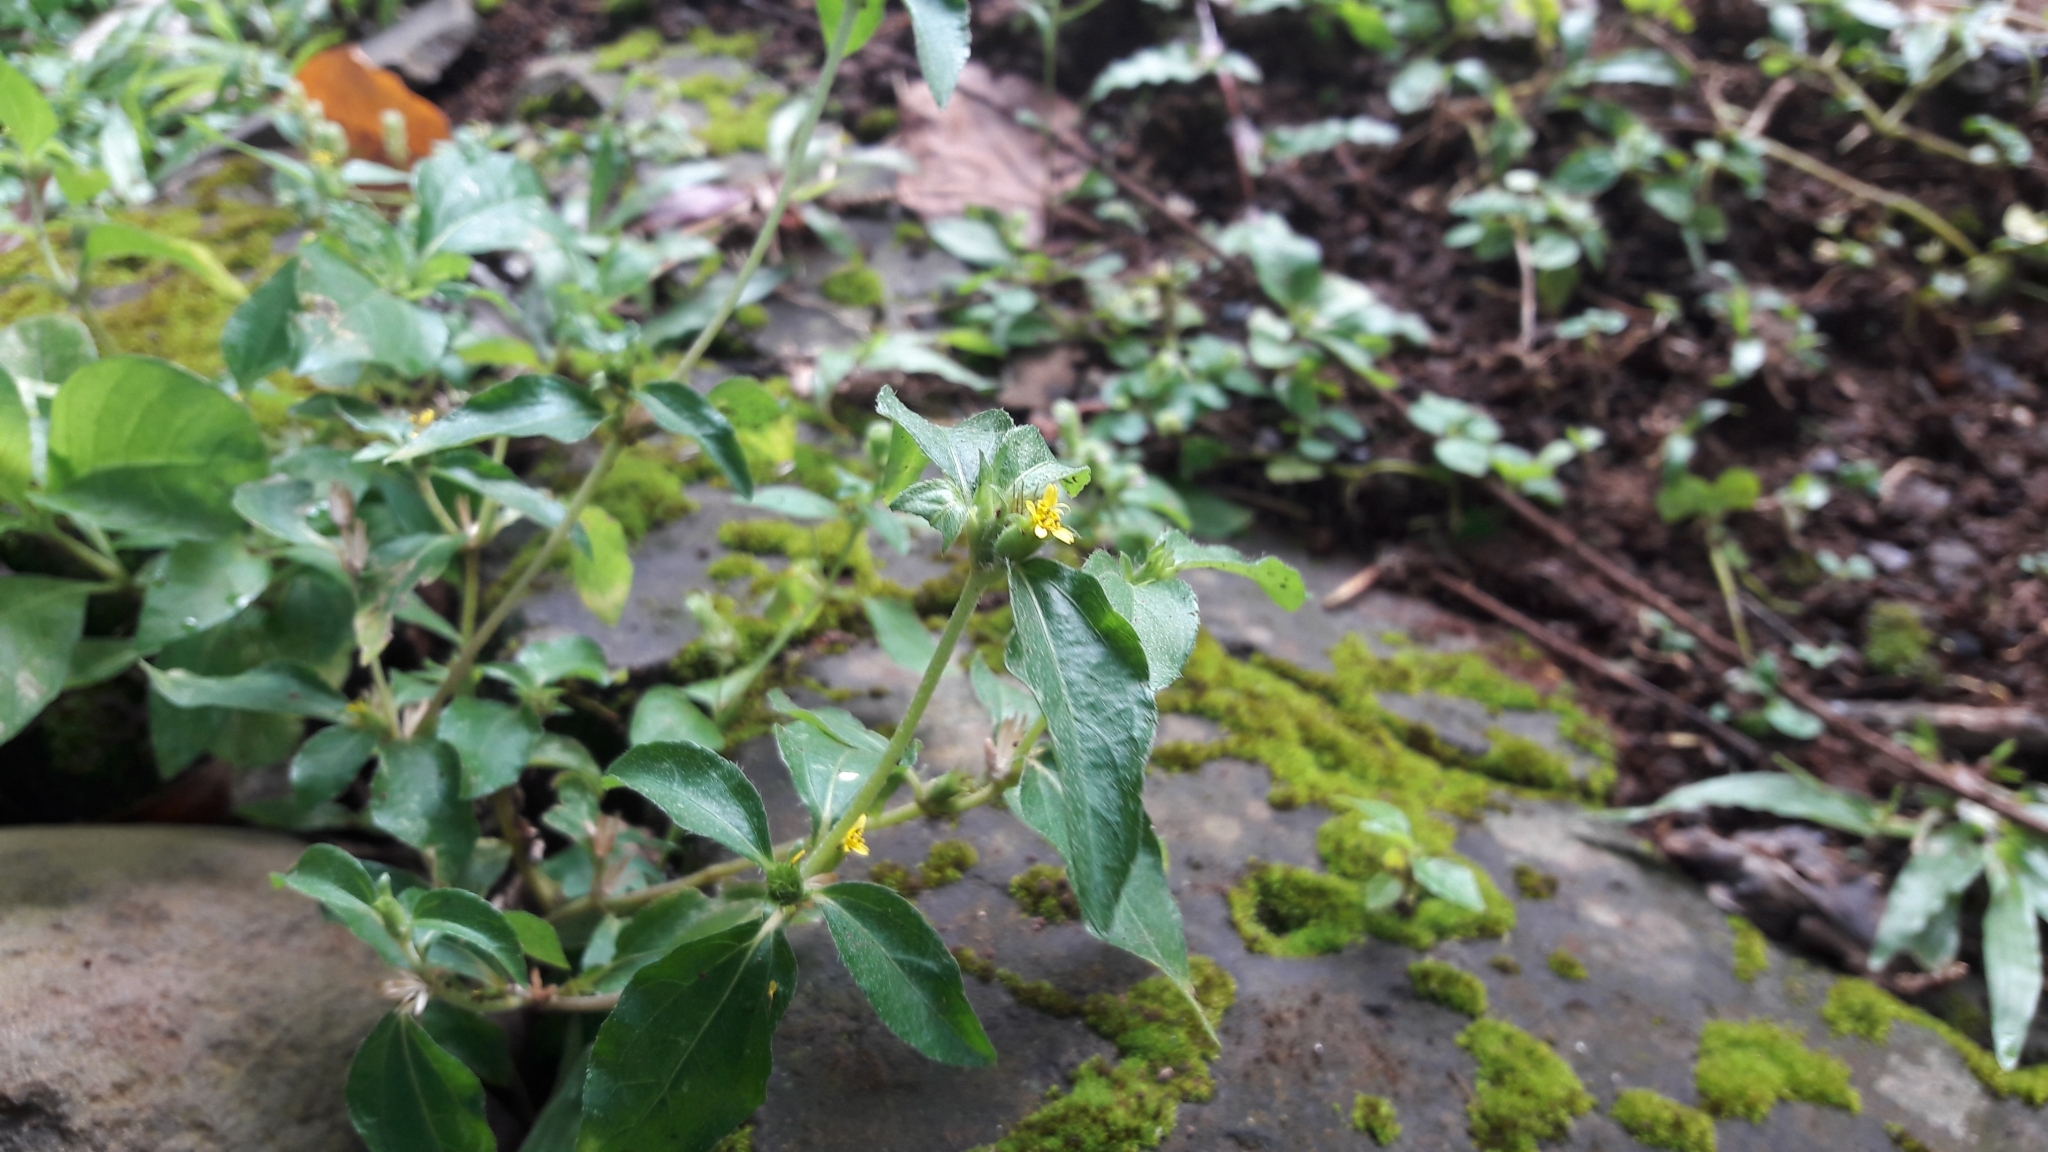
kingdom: Plantae
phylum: Tracheophyta
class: Magnoliopsida
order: Asterales
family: Asteraceae
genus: Synedrella
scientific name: Synedrella nodiflora
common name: Nodeweed
